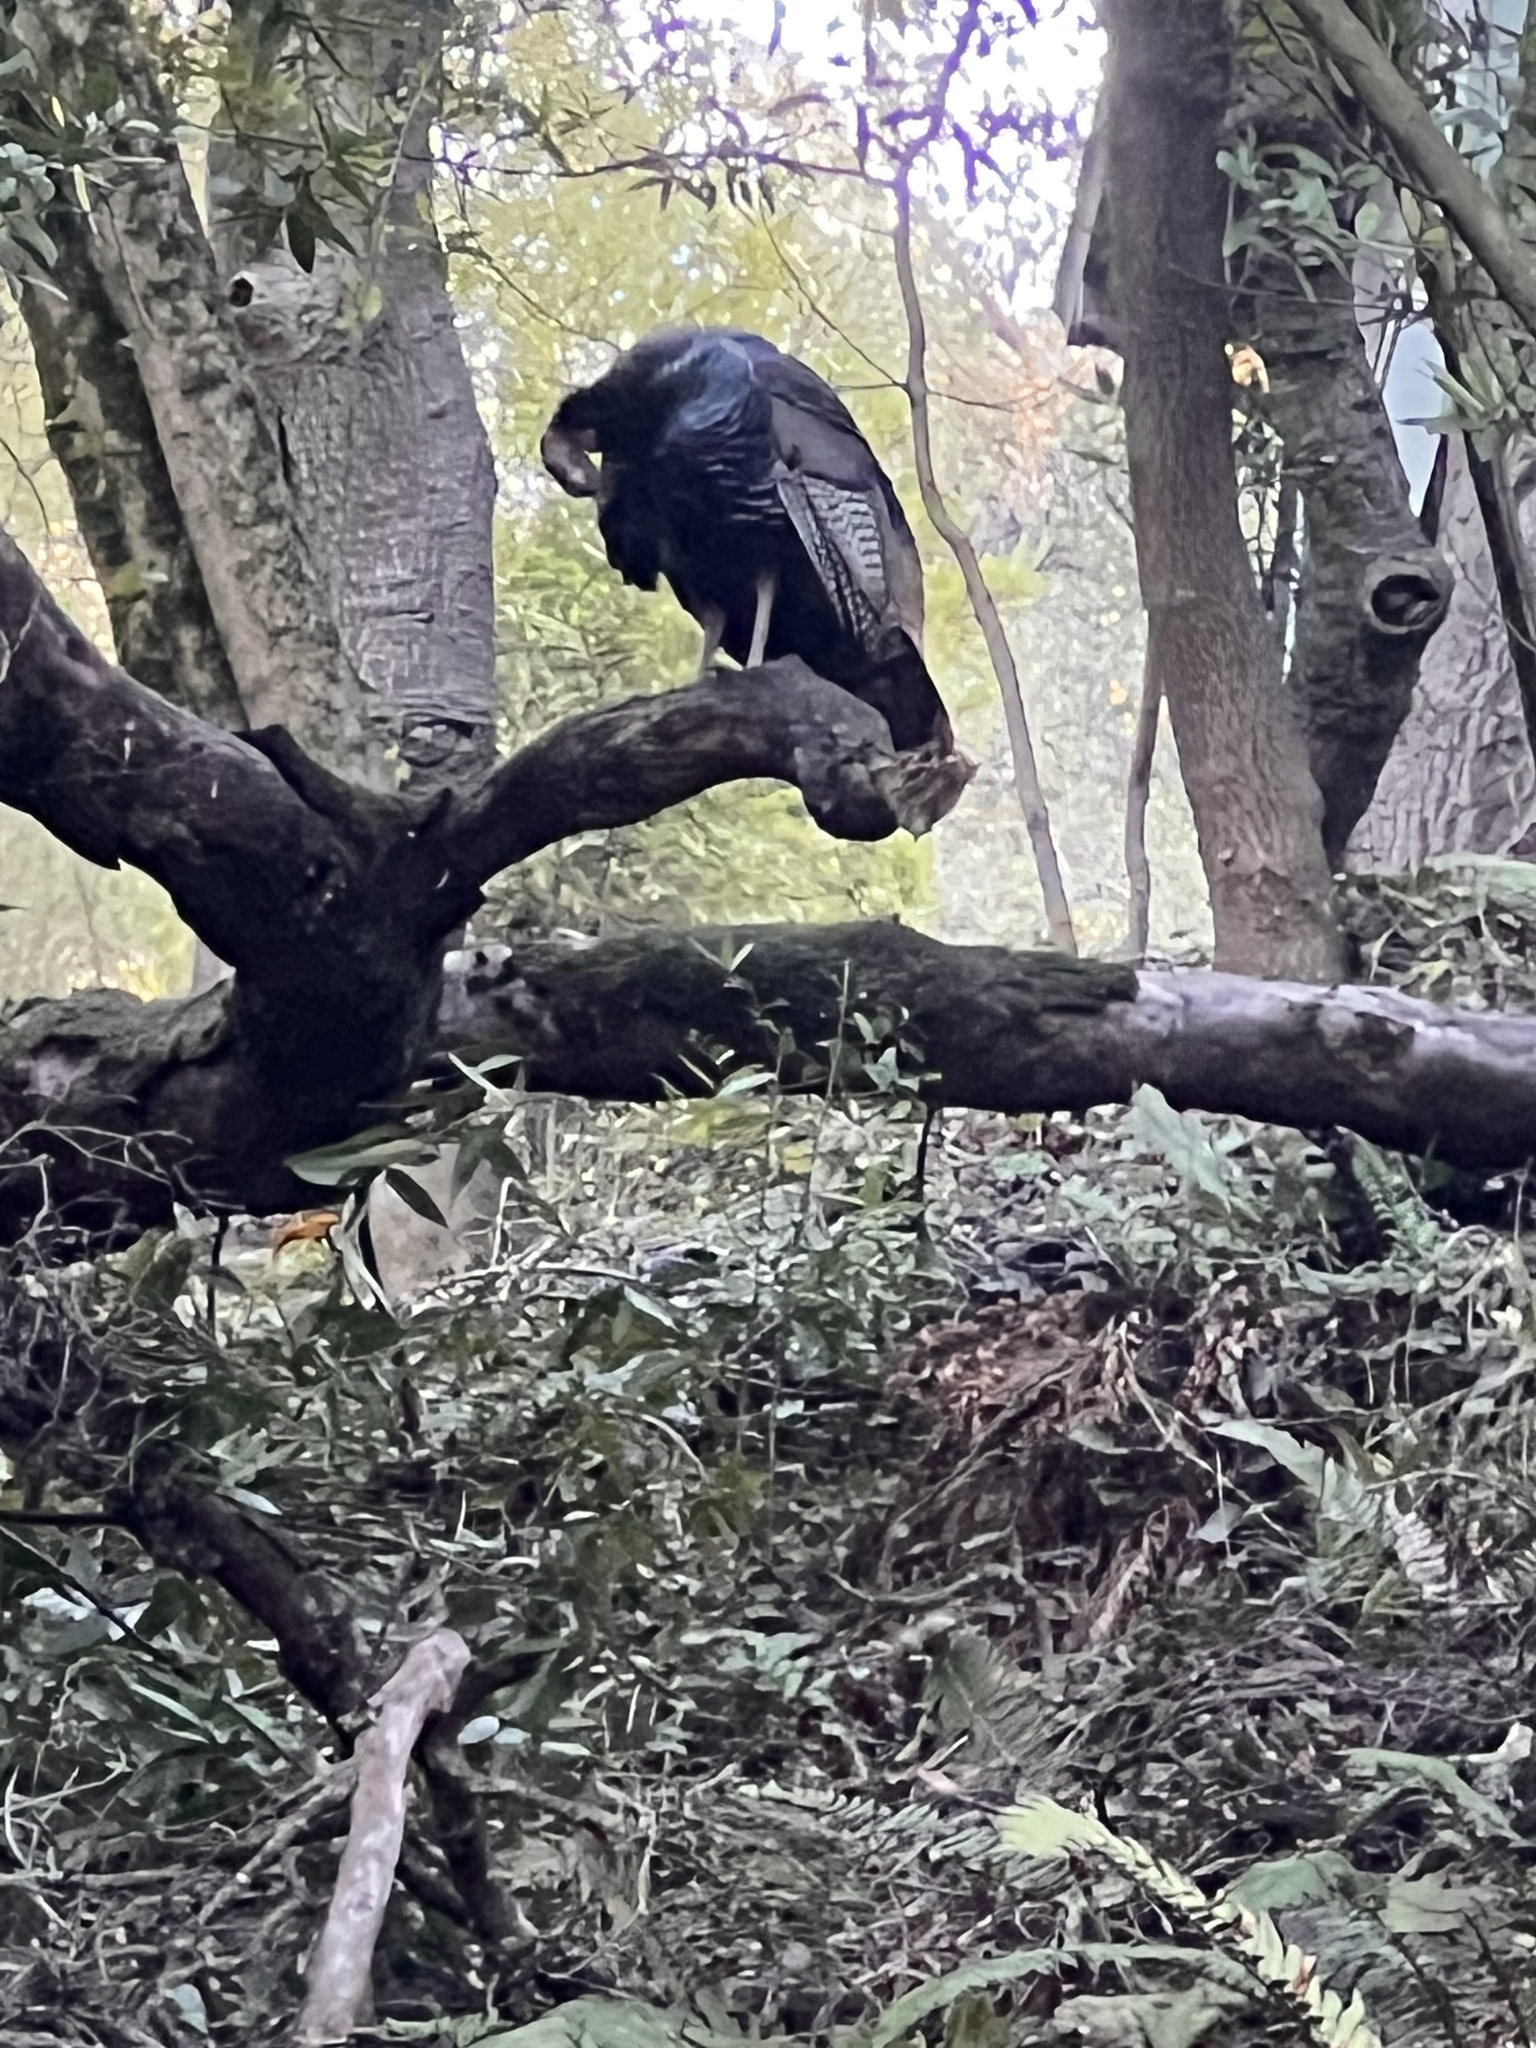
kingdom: Animalia
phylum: Chordata
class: Aves
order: Galliformes
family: Phasianidae
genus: Meleagris
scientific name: Meleagris gallopavo
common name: Wild turkey
